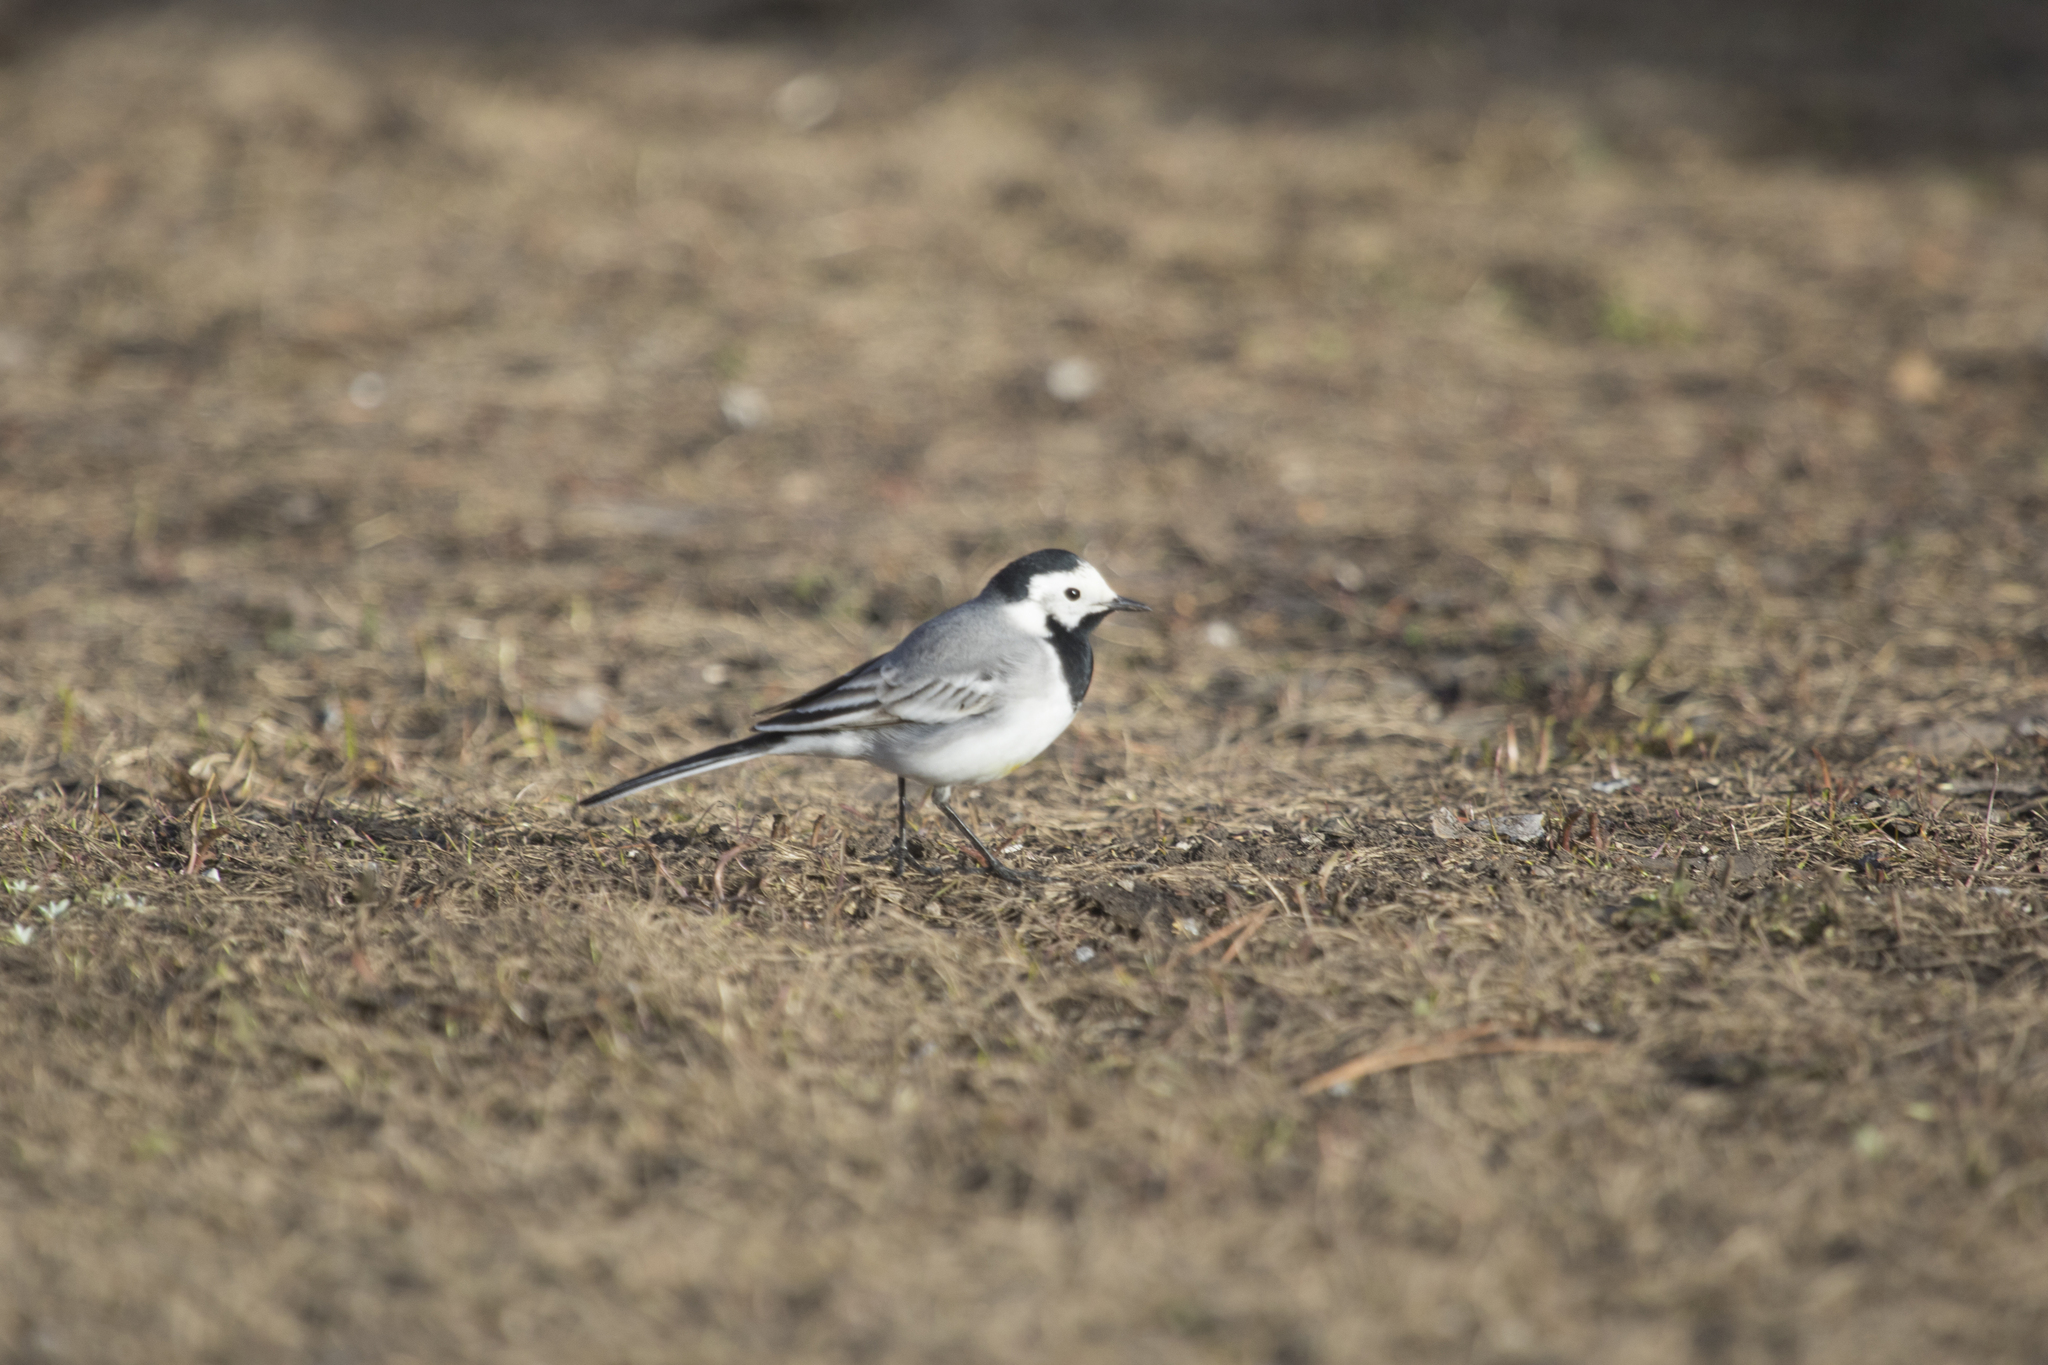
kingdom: Animalia
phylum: Chordata
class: Aves
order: Passeriformes
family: Motacillidae
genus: Motacilla
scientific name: Motacilla alba
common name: White wagtail
